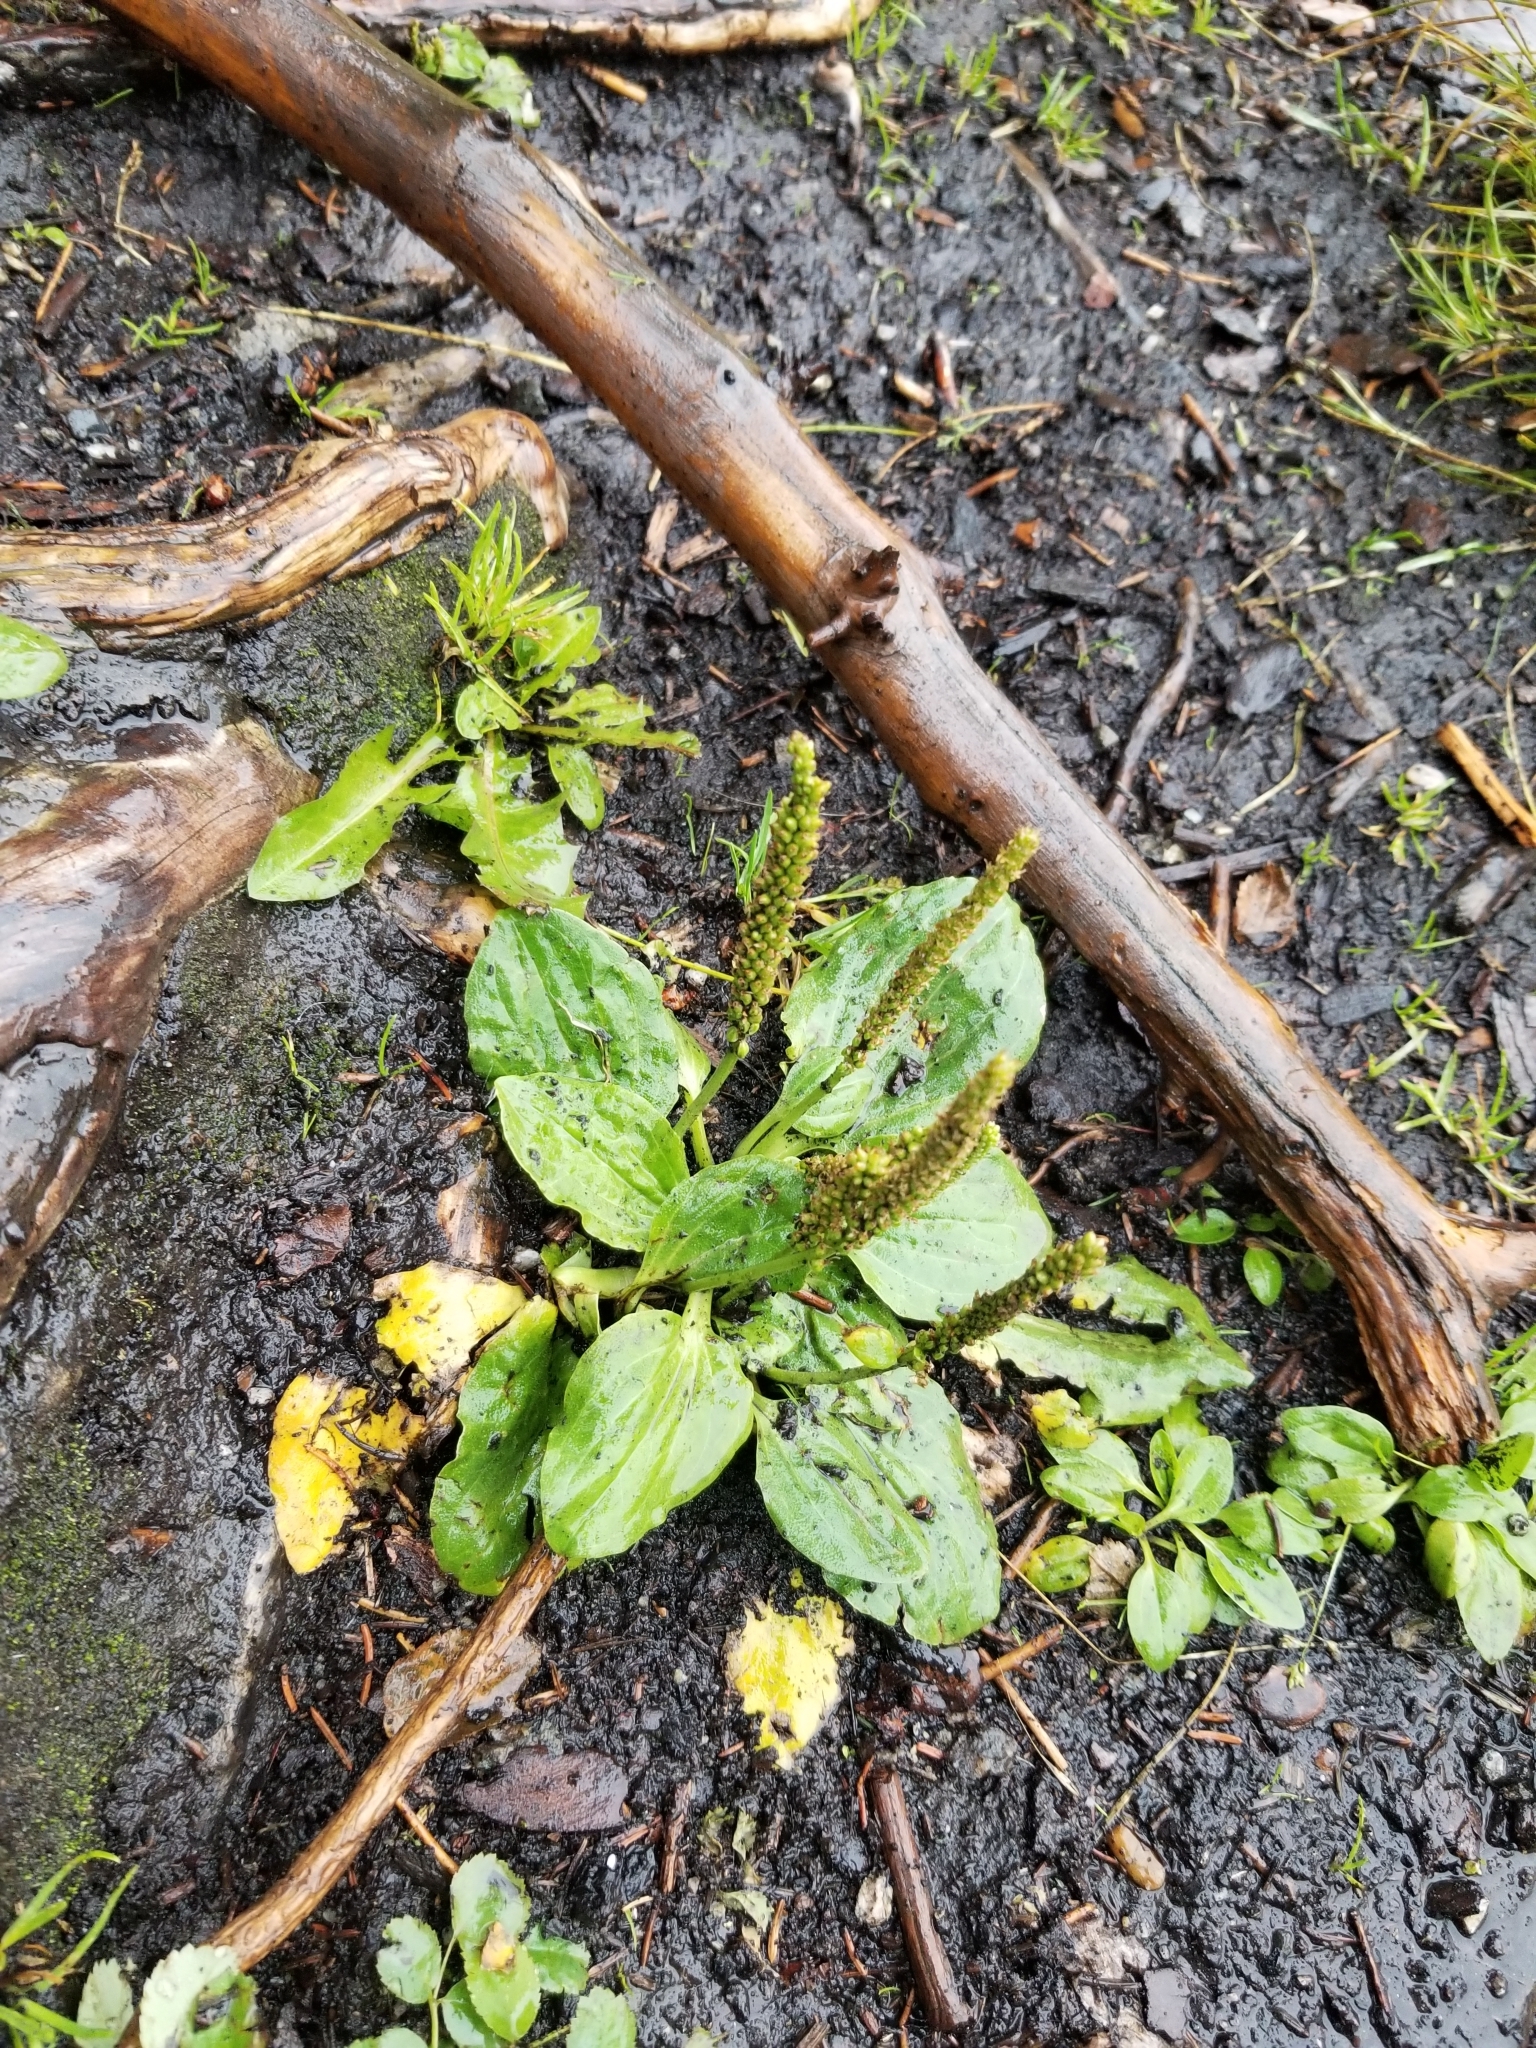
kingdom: Plantae
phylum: Tracheophyta
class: Magnoliopsida
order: Lamiales
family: Plantaginaceae
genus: Plantago
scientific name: Plantago major
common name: Common plantain
